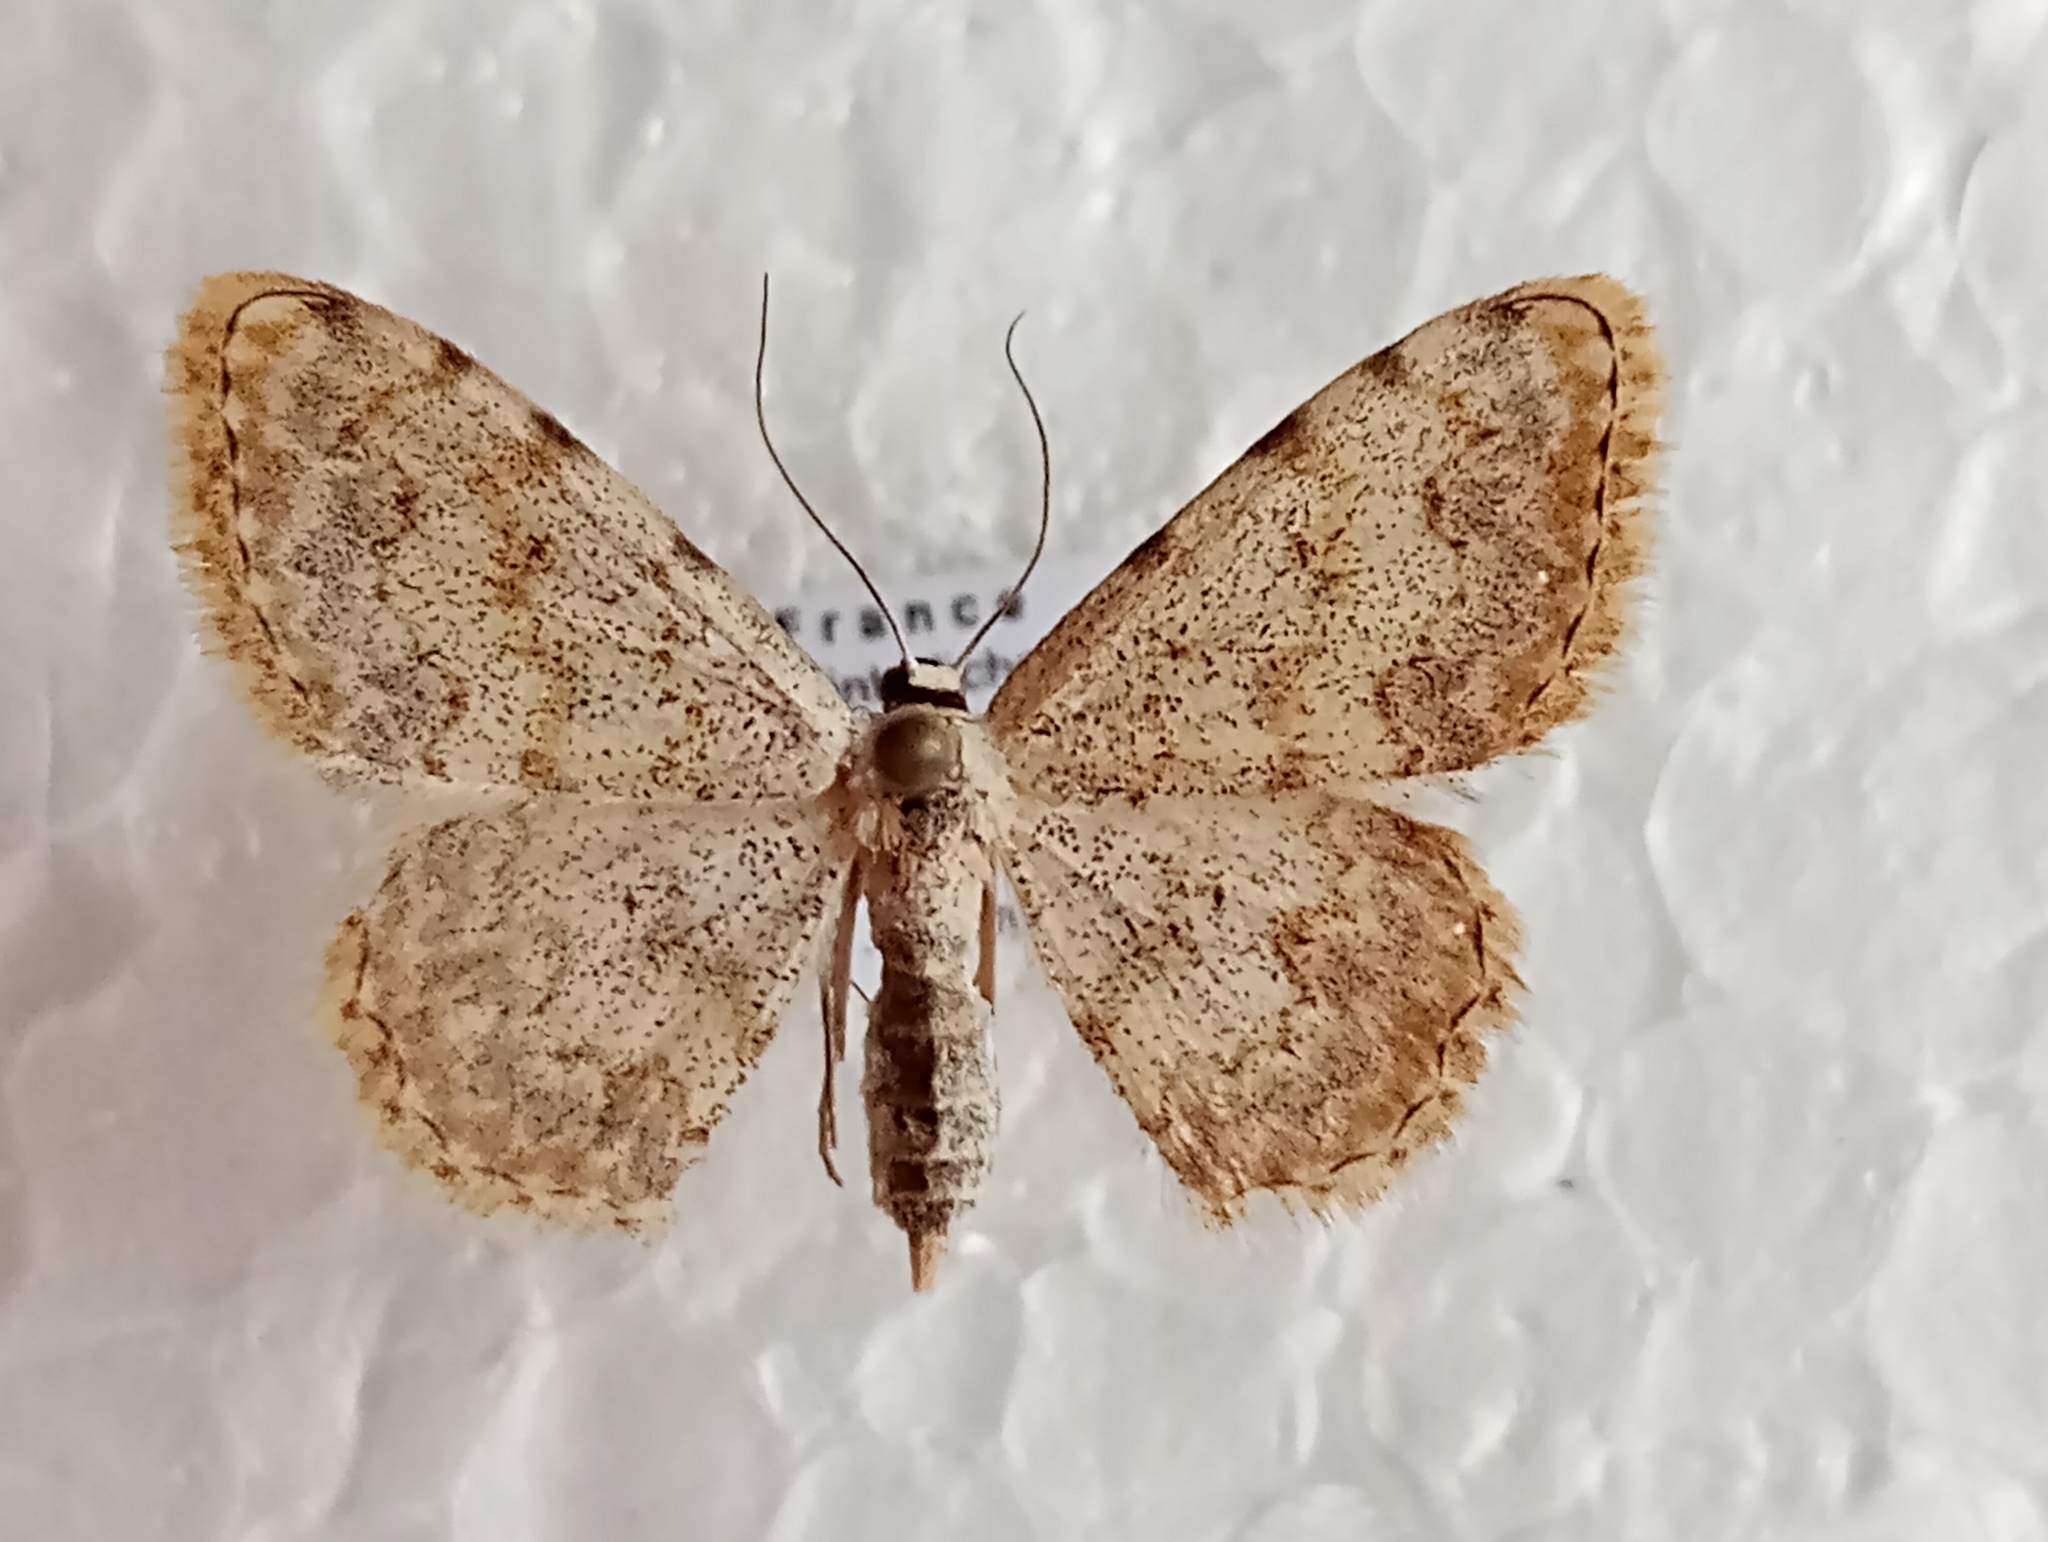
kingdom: Animalia
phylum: Arthropoda
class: Insecta
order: Lepidoptera
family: Geometridae
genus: Scopula
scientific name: Scopula submutata
